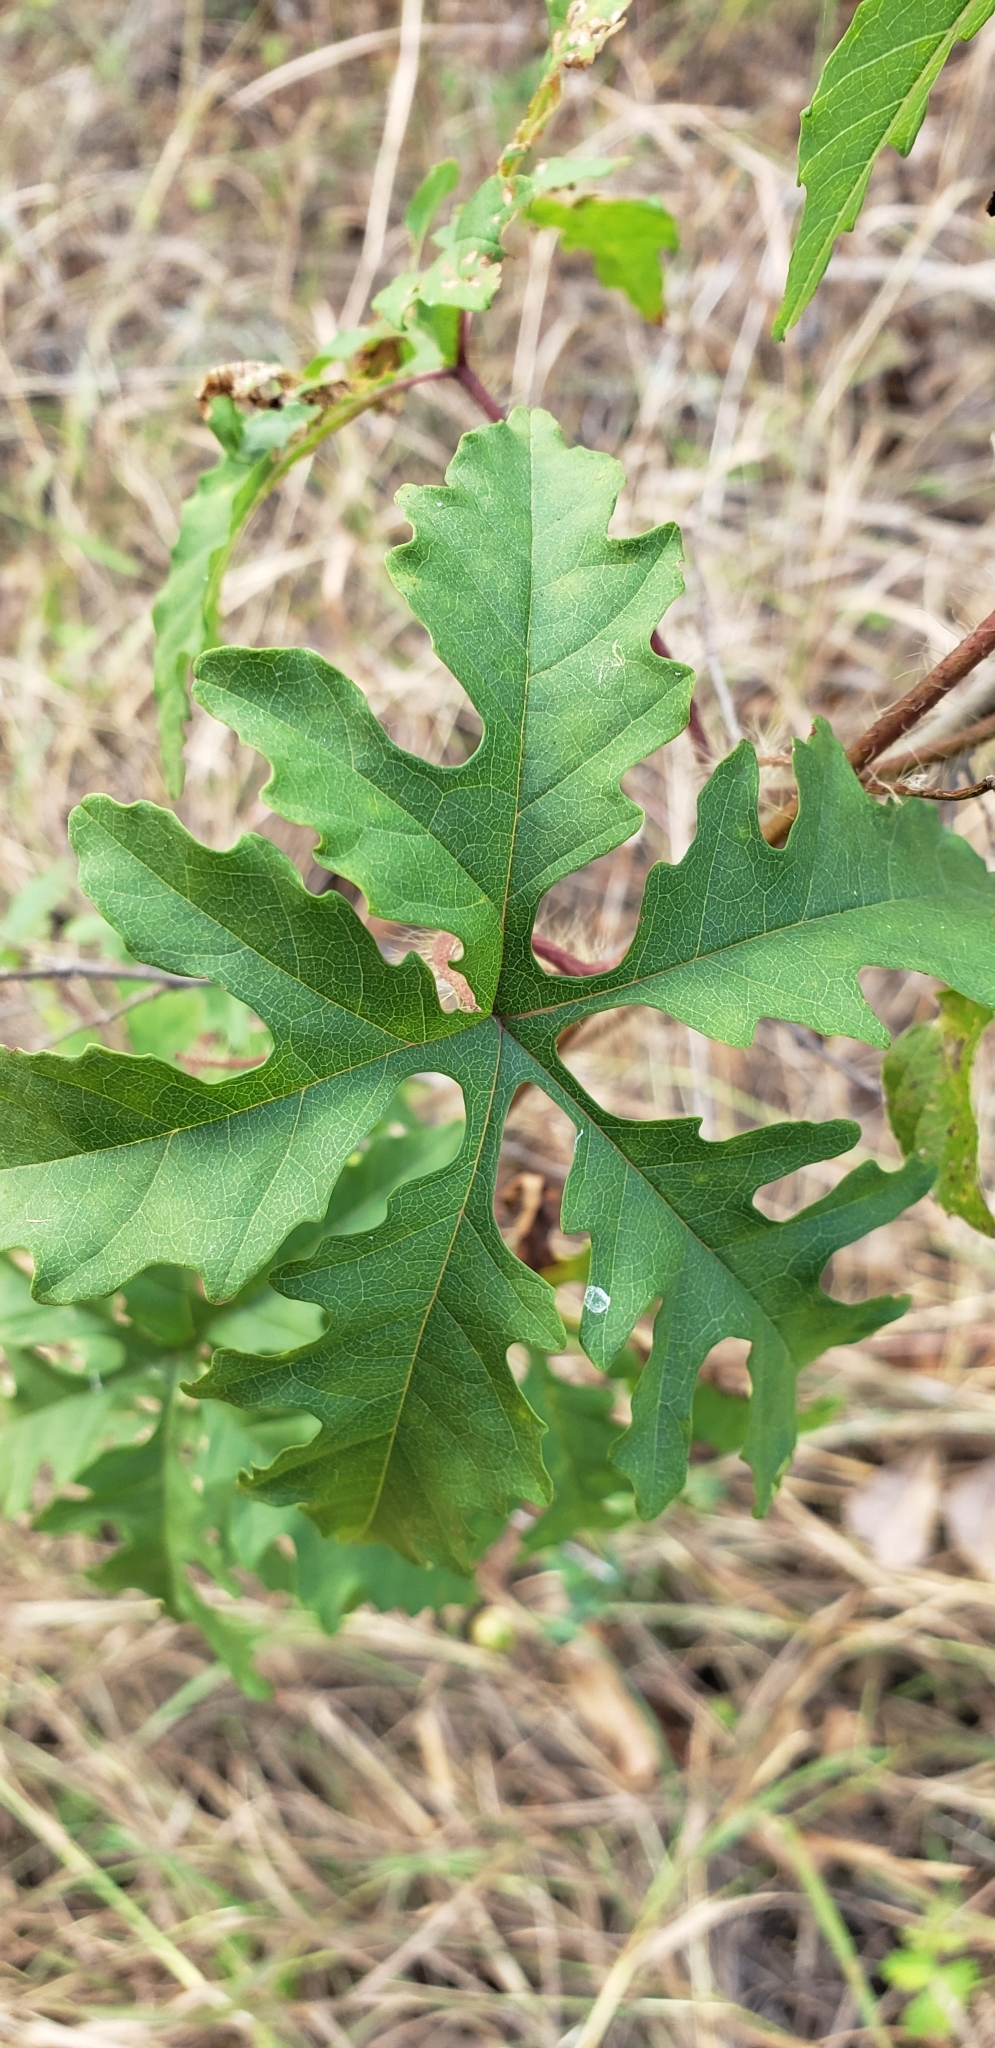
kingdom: Plantae
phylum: Tracheophyta
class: Magnoliopsida
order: Solanales
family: Convolvulaceae
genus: Distimake
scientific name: Distimake dissectus
